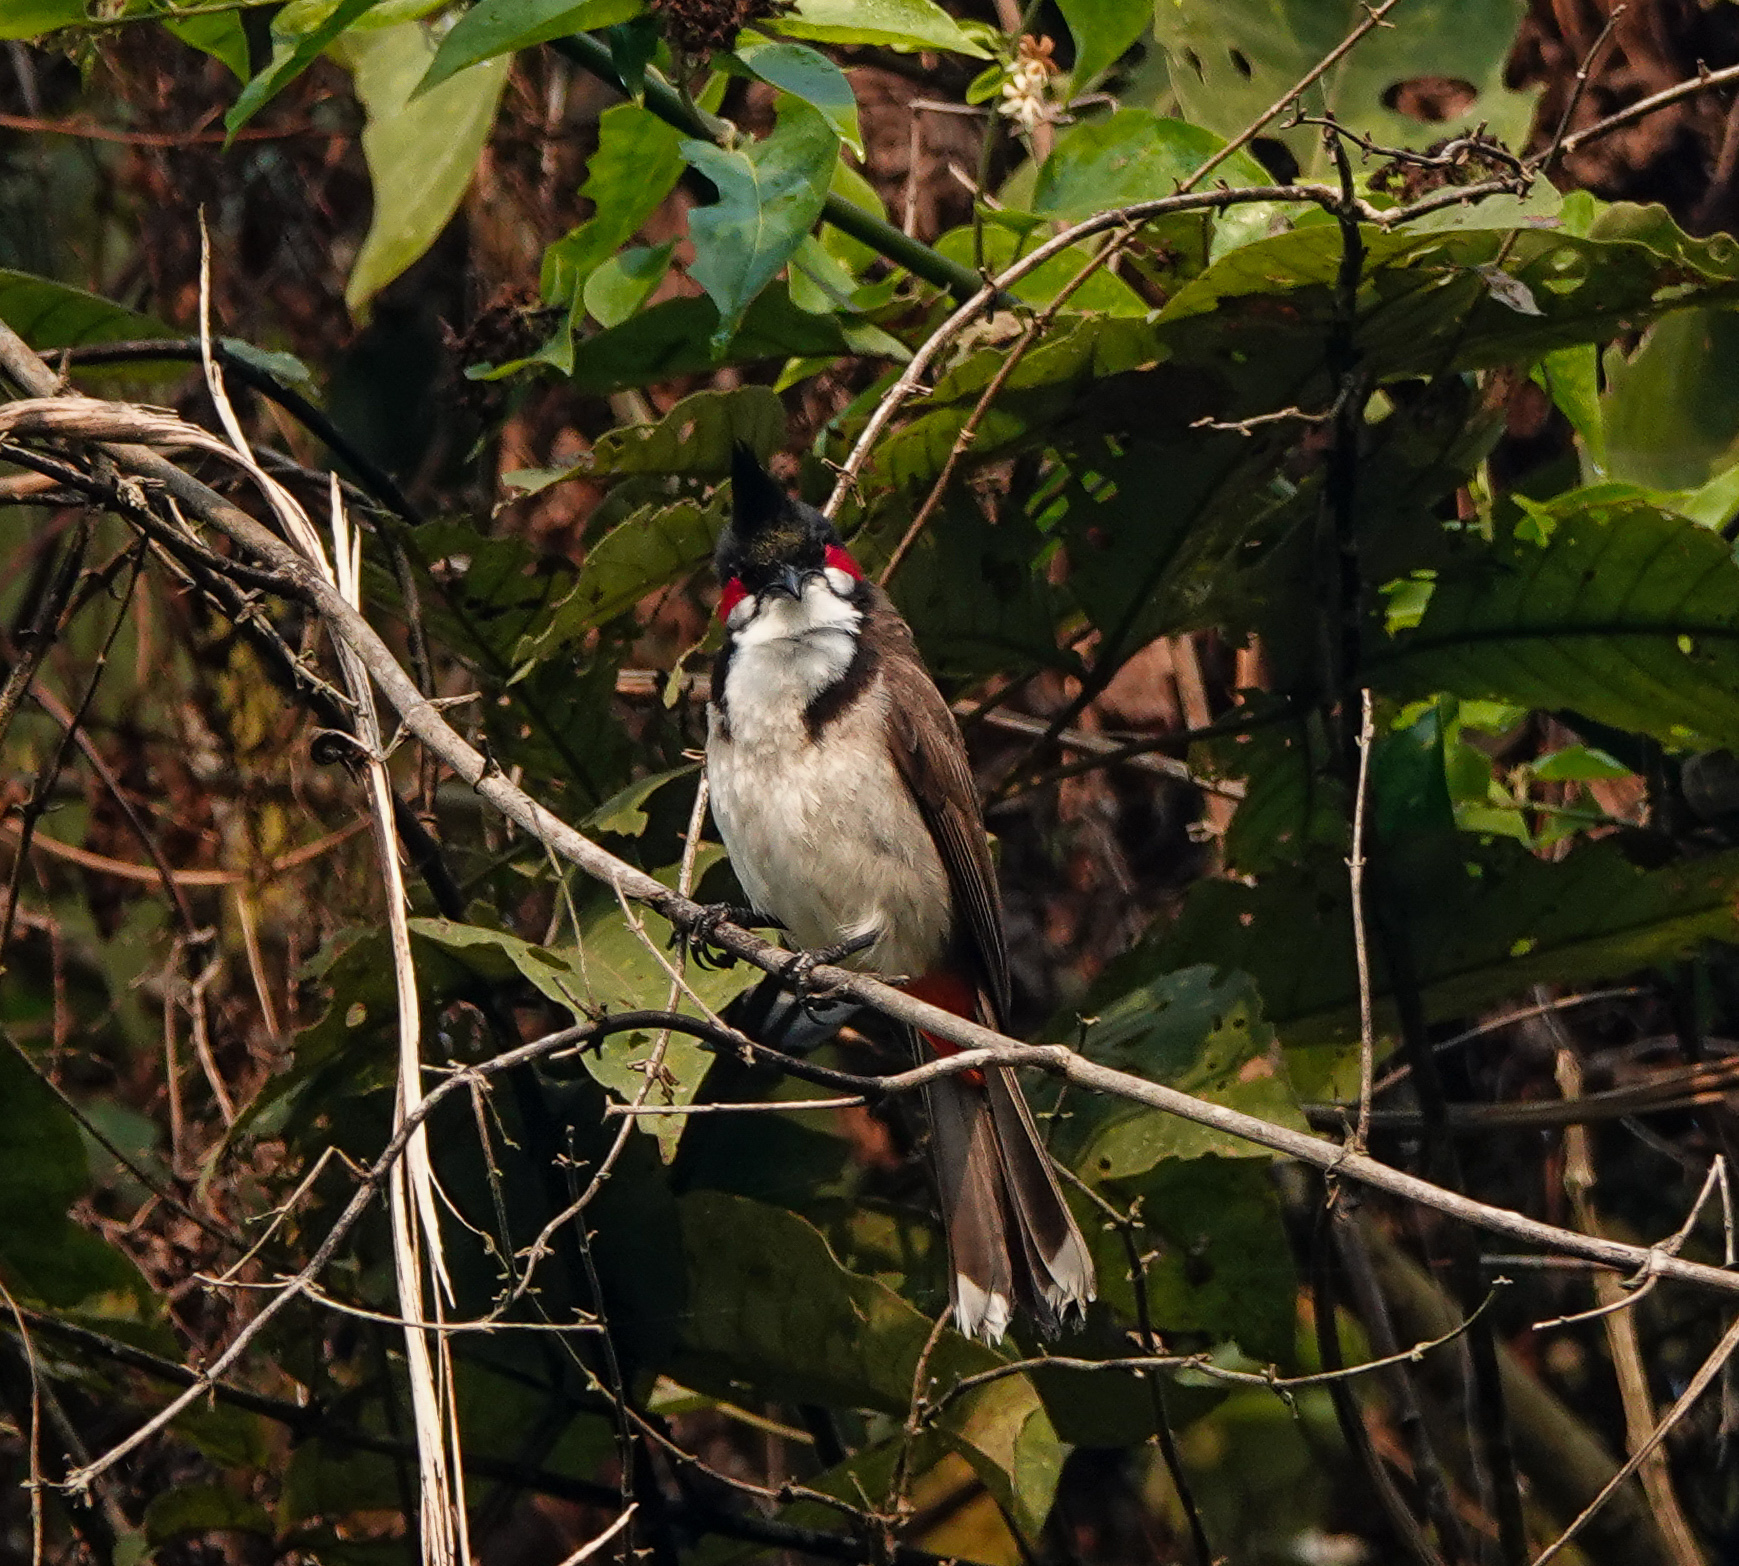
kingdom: Animalia
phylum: Chordata
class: Aves
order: Passeriformes
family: Pycnonotidae
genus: Pycnonotus
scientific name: Pycnonotus jocosus
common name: Red-whiskered bulbul
